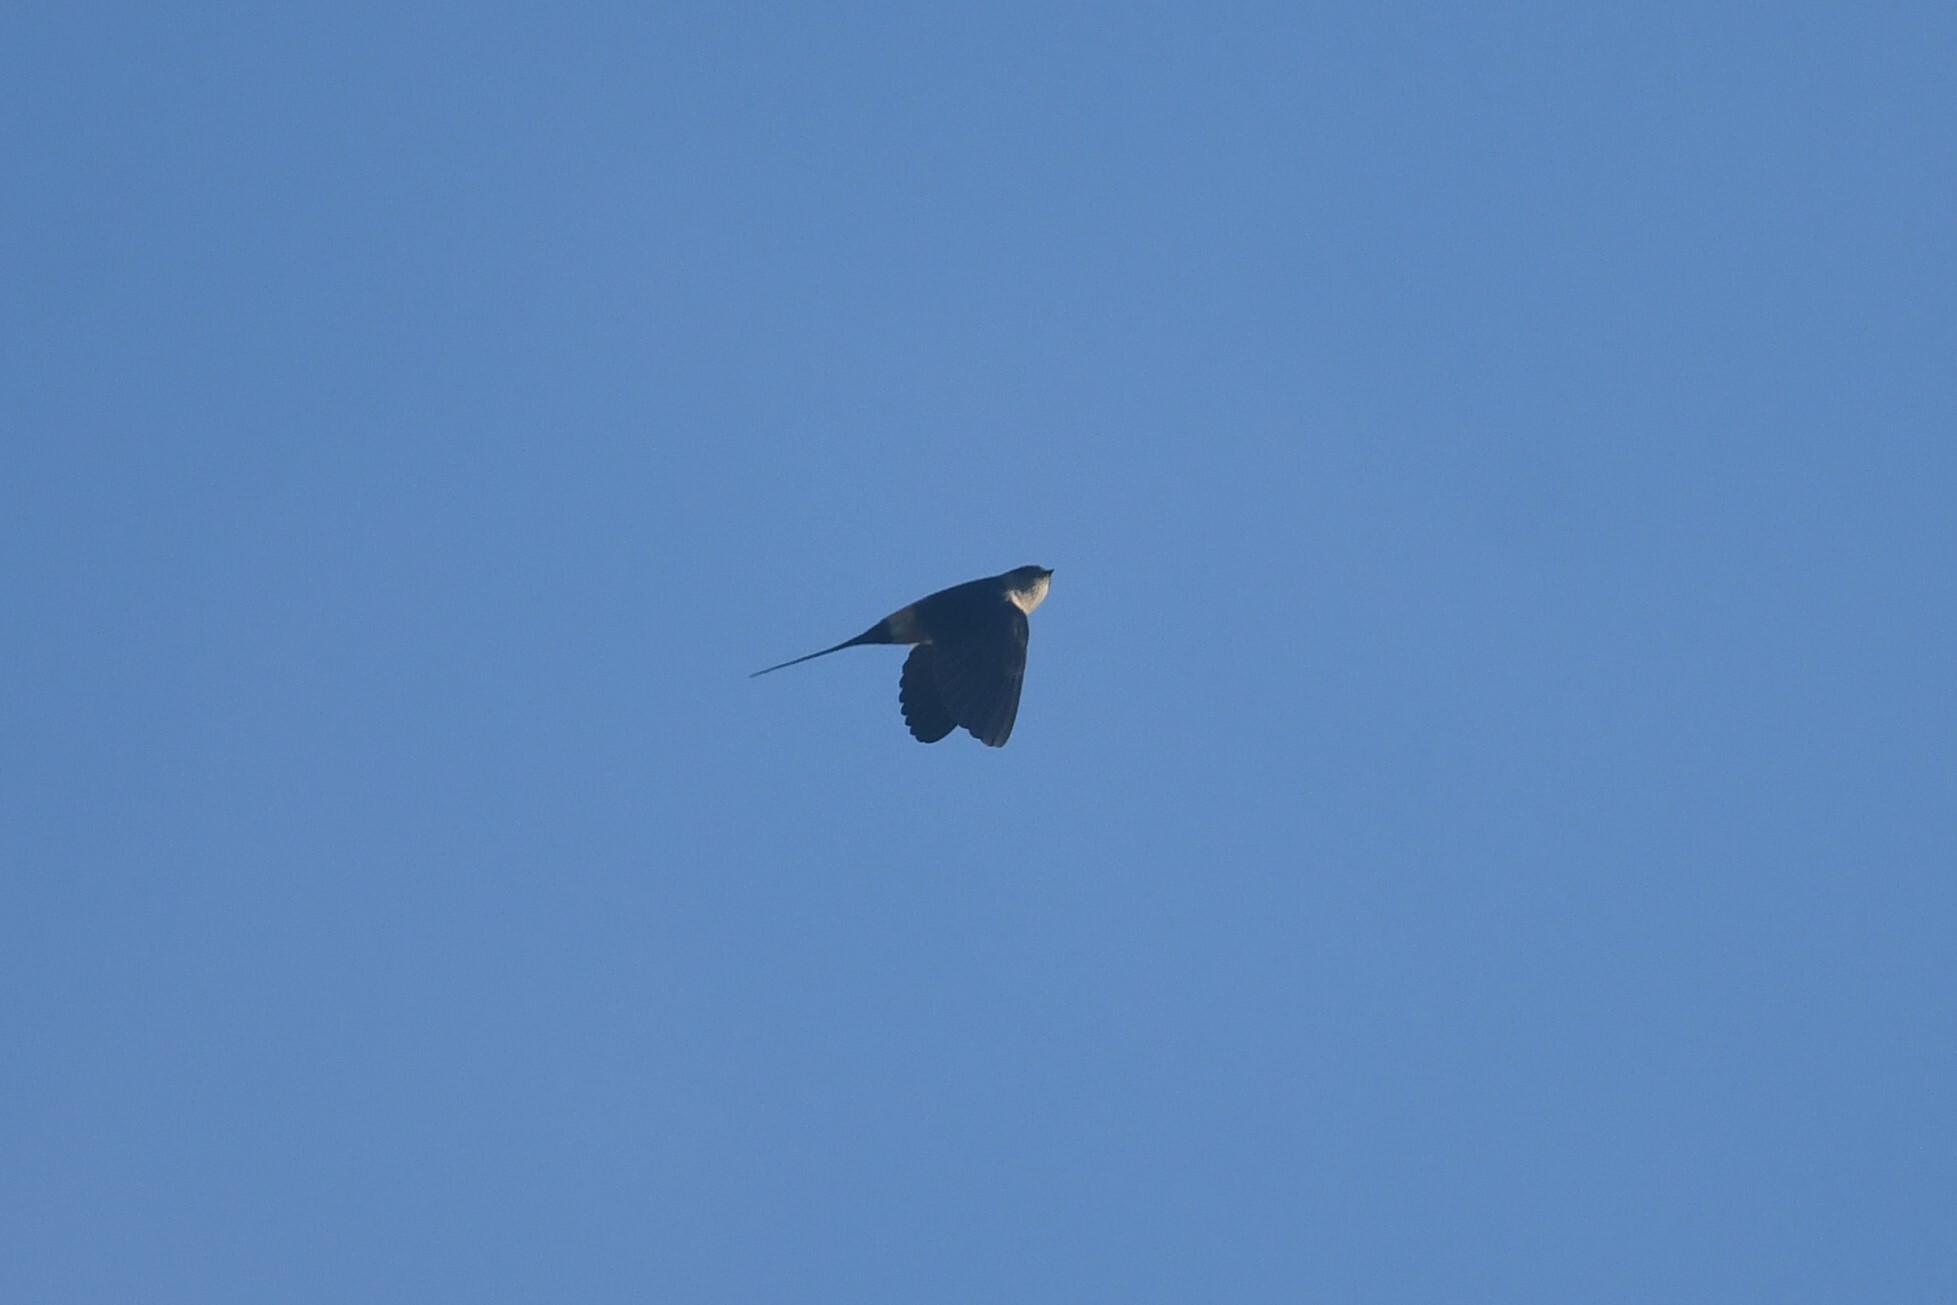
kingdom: Animalia
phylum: Chordata
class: Aves
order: Passeriformes
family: Hirundinidae
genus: Cecropis
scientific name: Cecropis daurica
